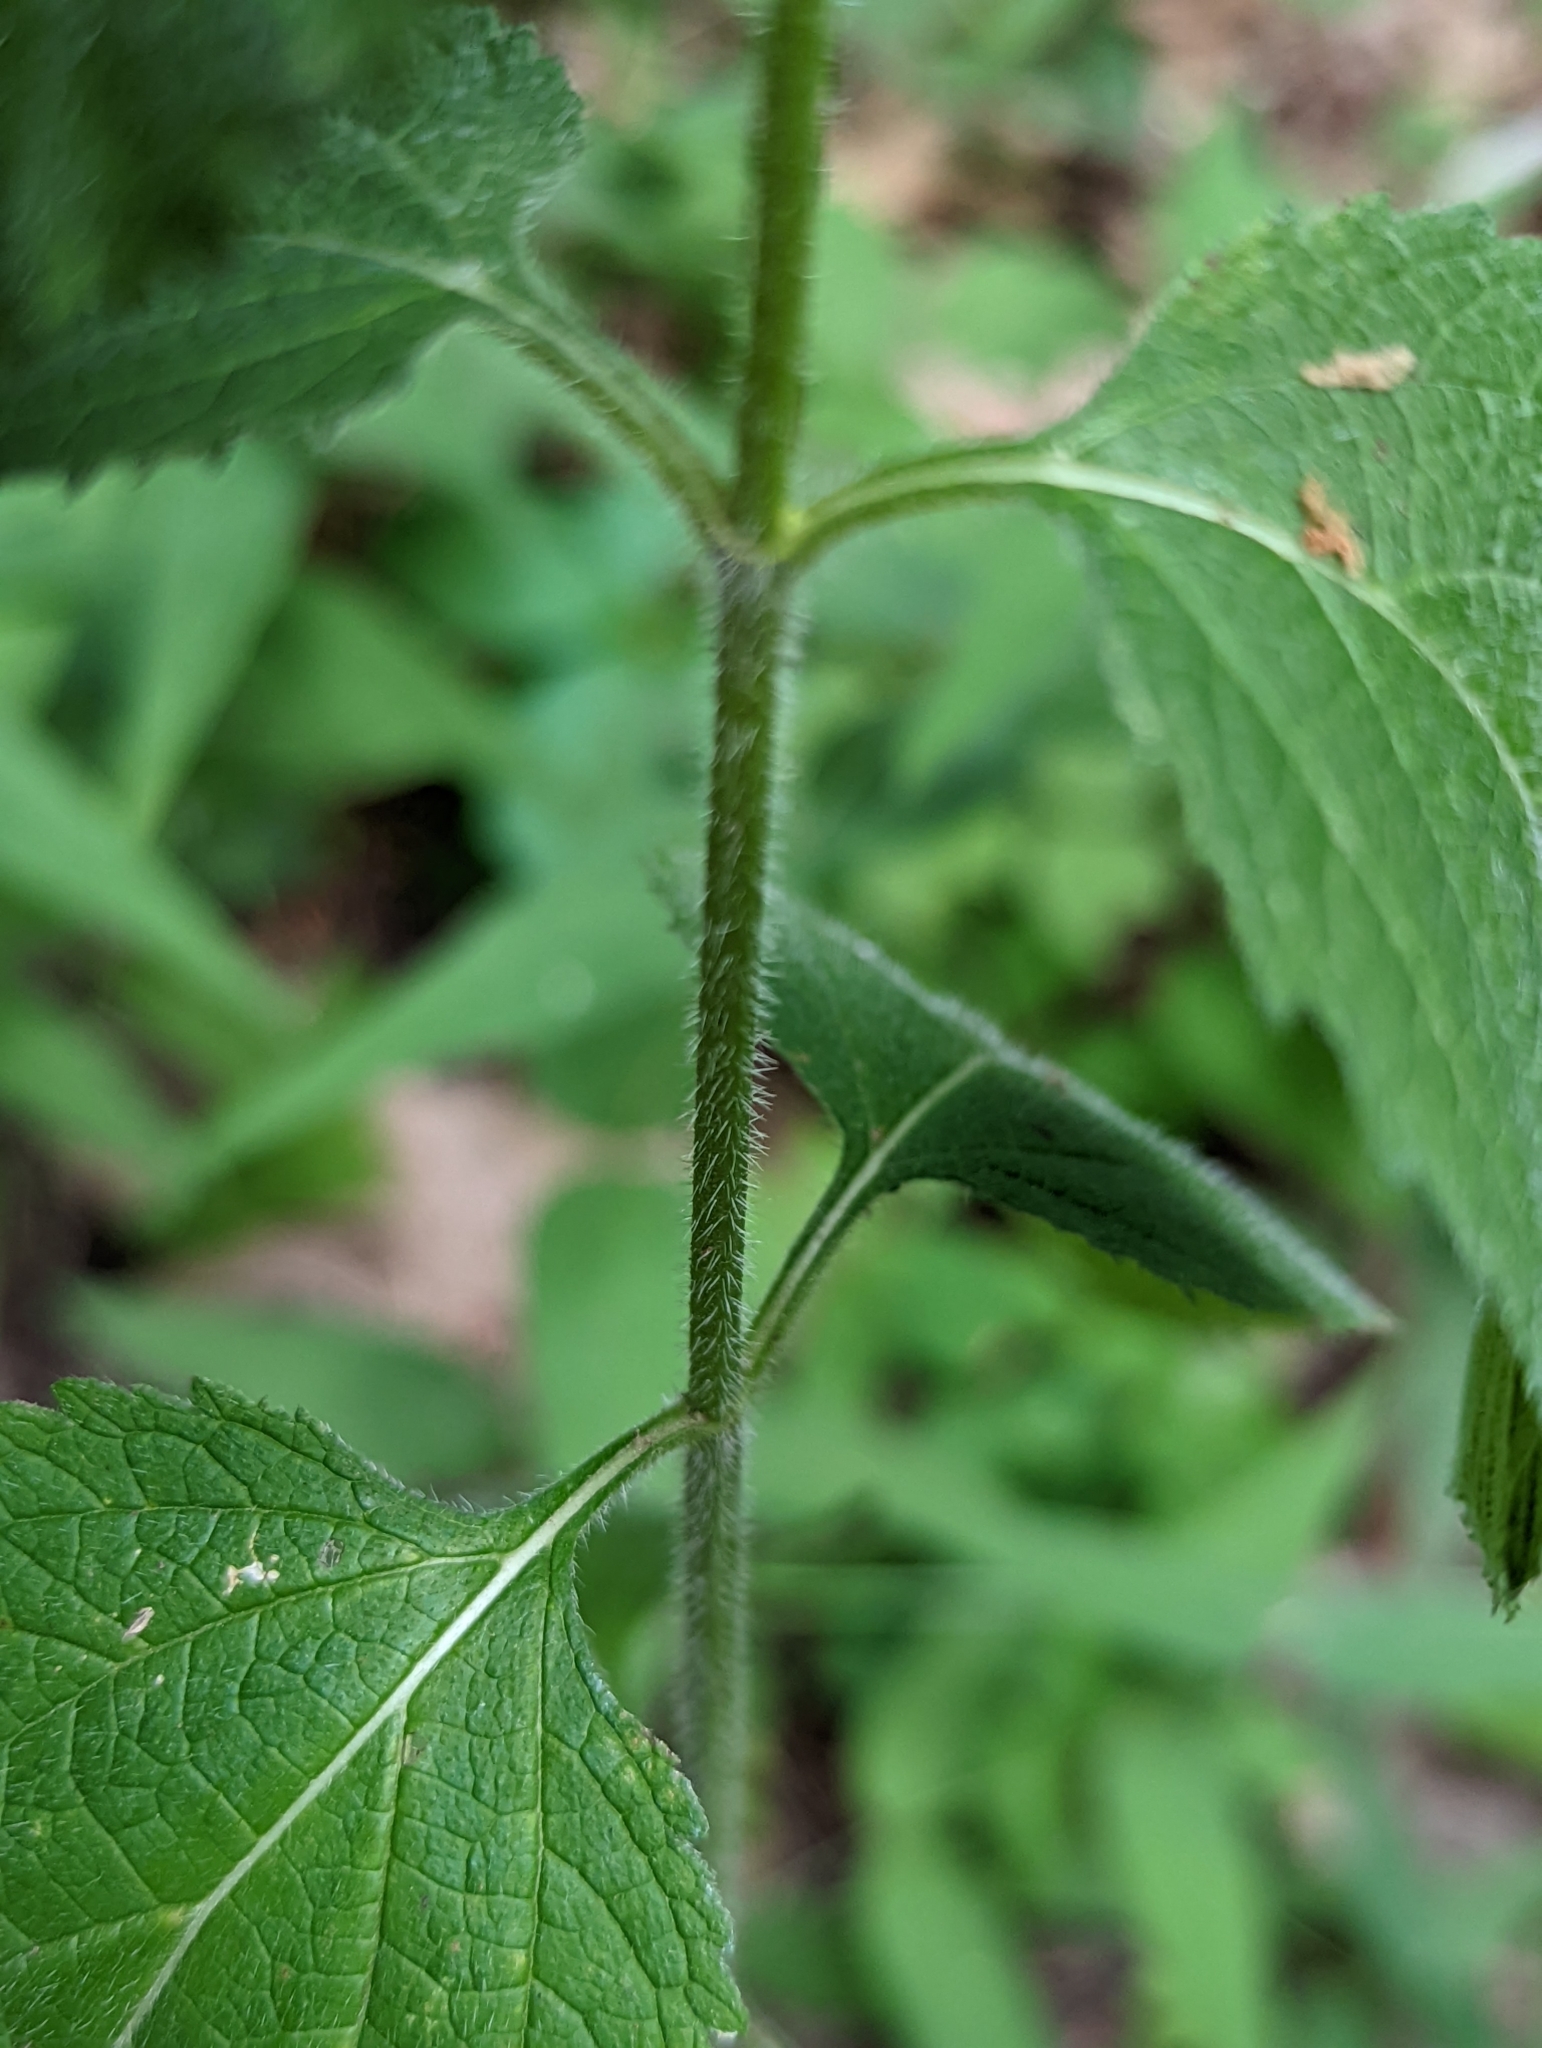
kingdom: Plantae
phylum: Tracheophyta
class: Magnoliopsida
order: Lamiales
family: Verbenaceae
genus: Verbena
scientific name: Verbena urticifolia
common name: Nettle-leaved vervain
